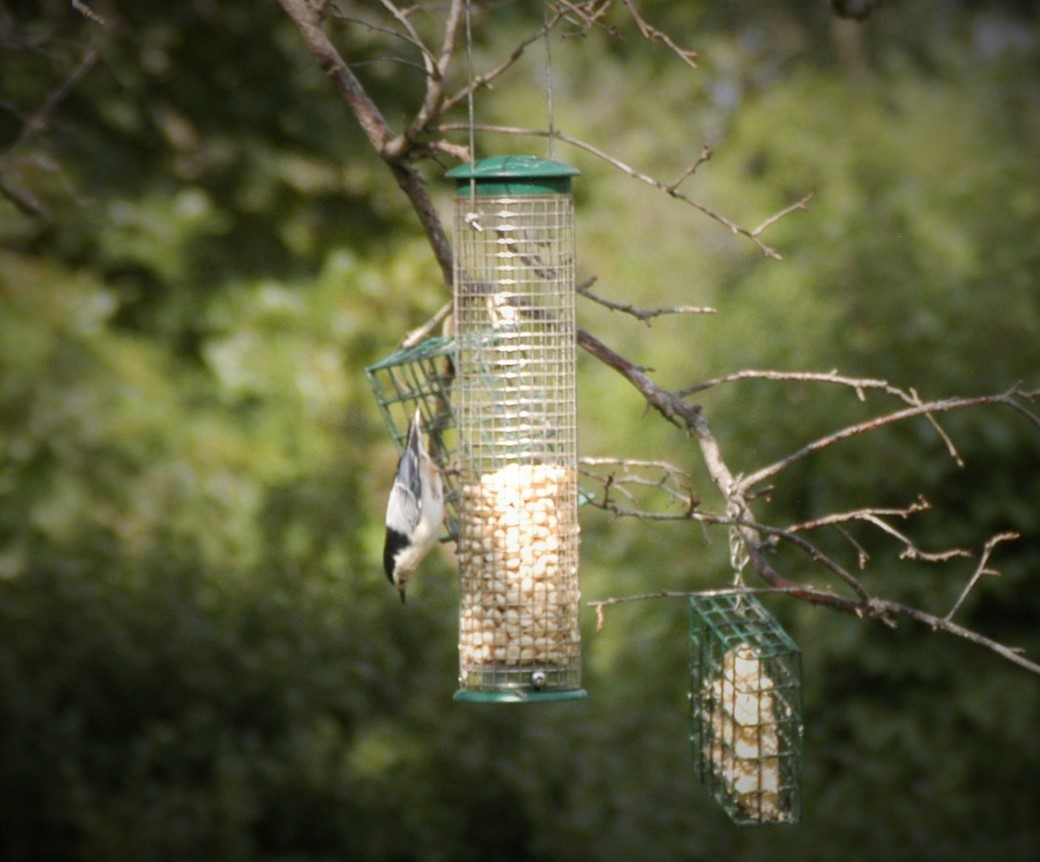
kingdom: Animalia
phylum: Chordata
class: Aves
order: Passeriformes
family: Sittidae
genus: Sitta
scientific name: Sitta carolinensis
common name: White-breasted nuthatch
